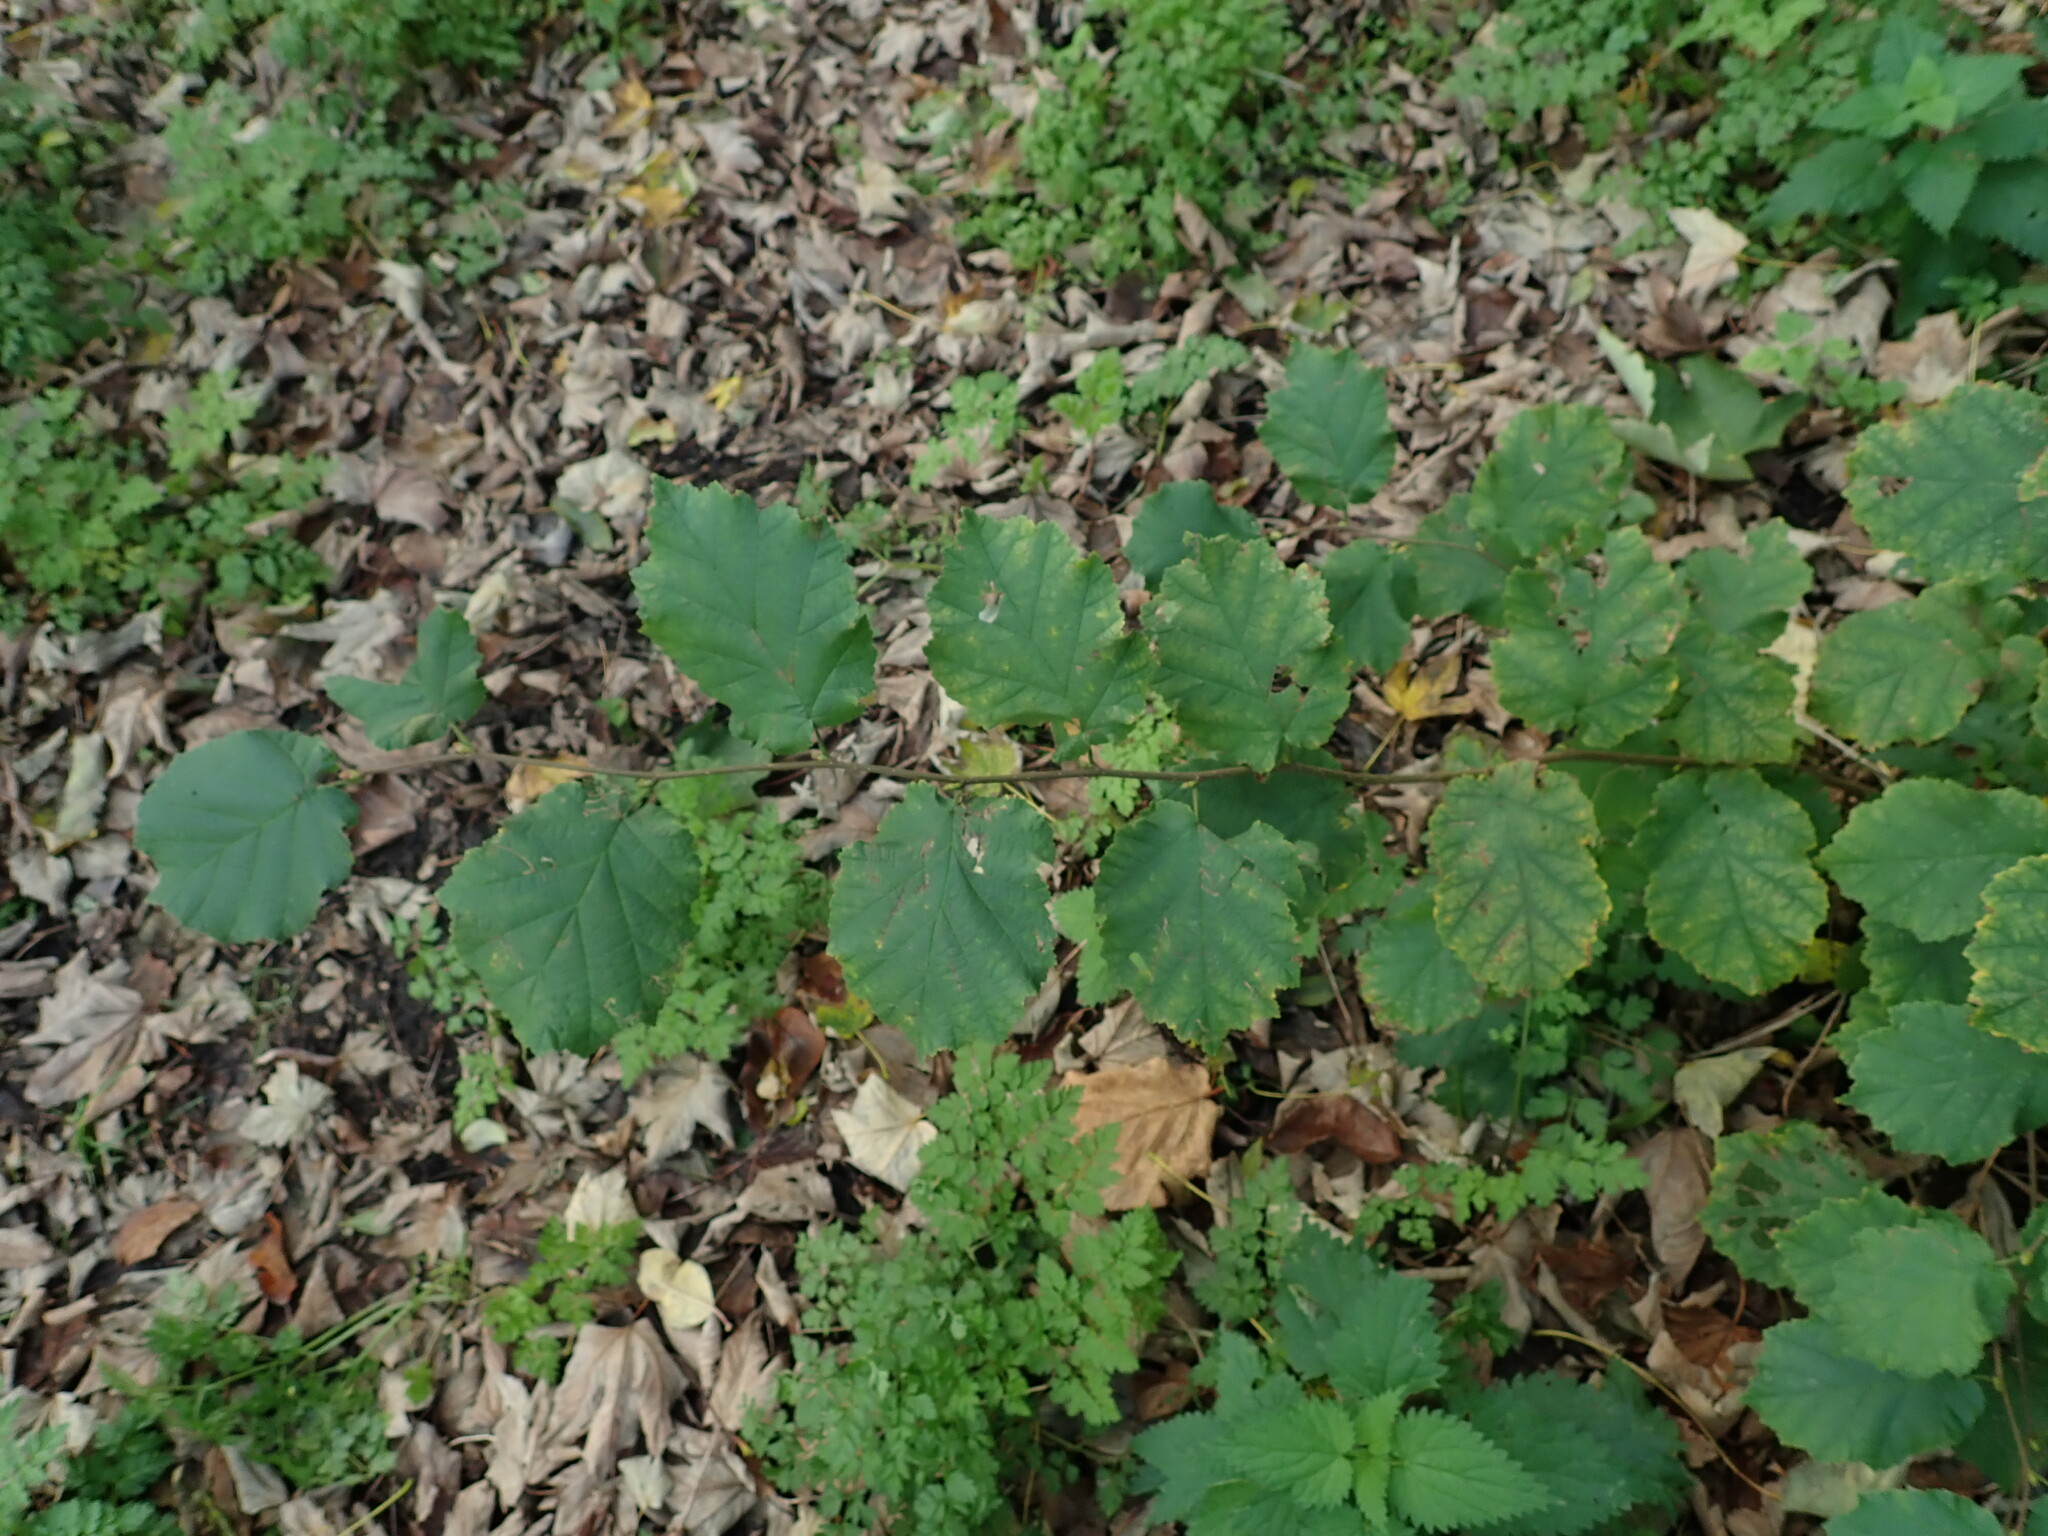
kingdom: Plantae
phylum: Tracheophyta
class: Magnoliopsida
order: Fagales
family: Betulaceae
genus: Corylus
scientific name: Corylus avellana
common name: European hazel
